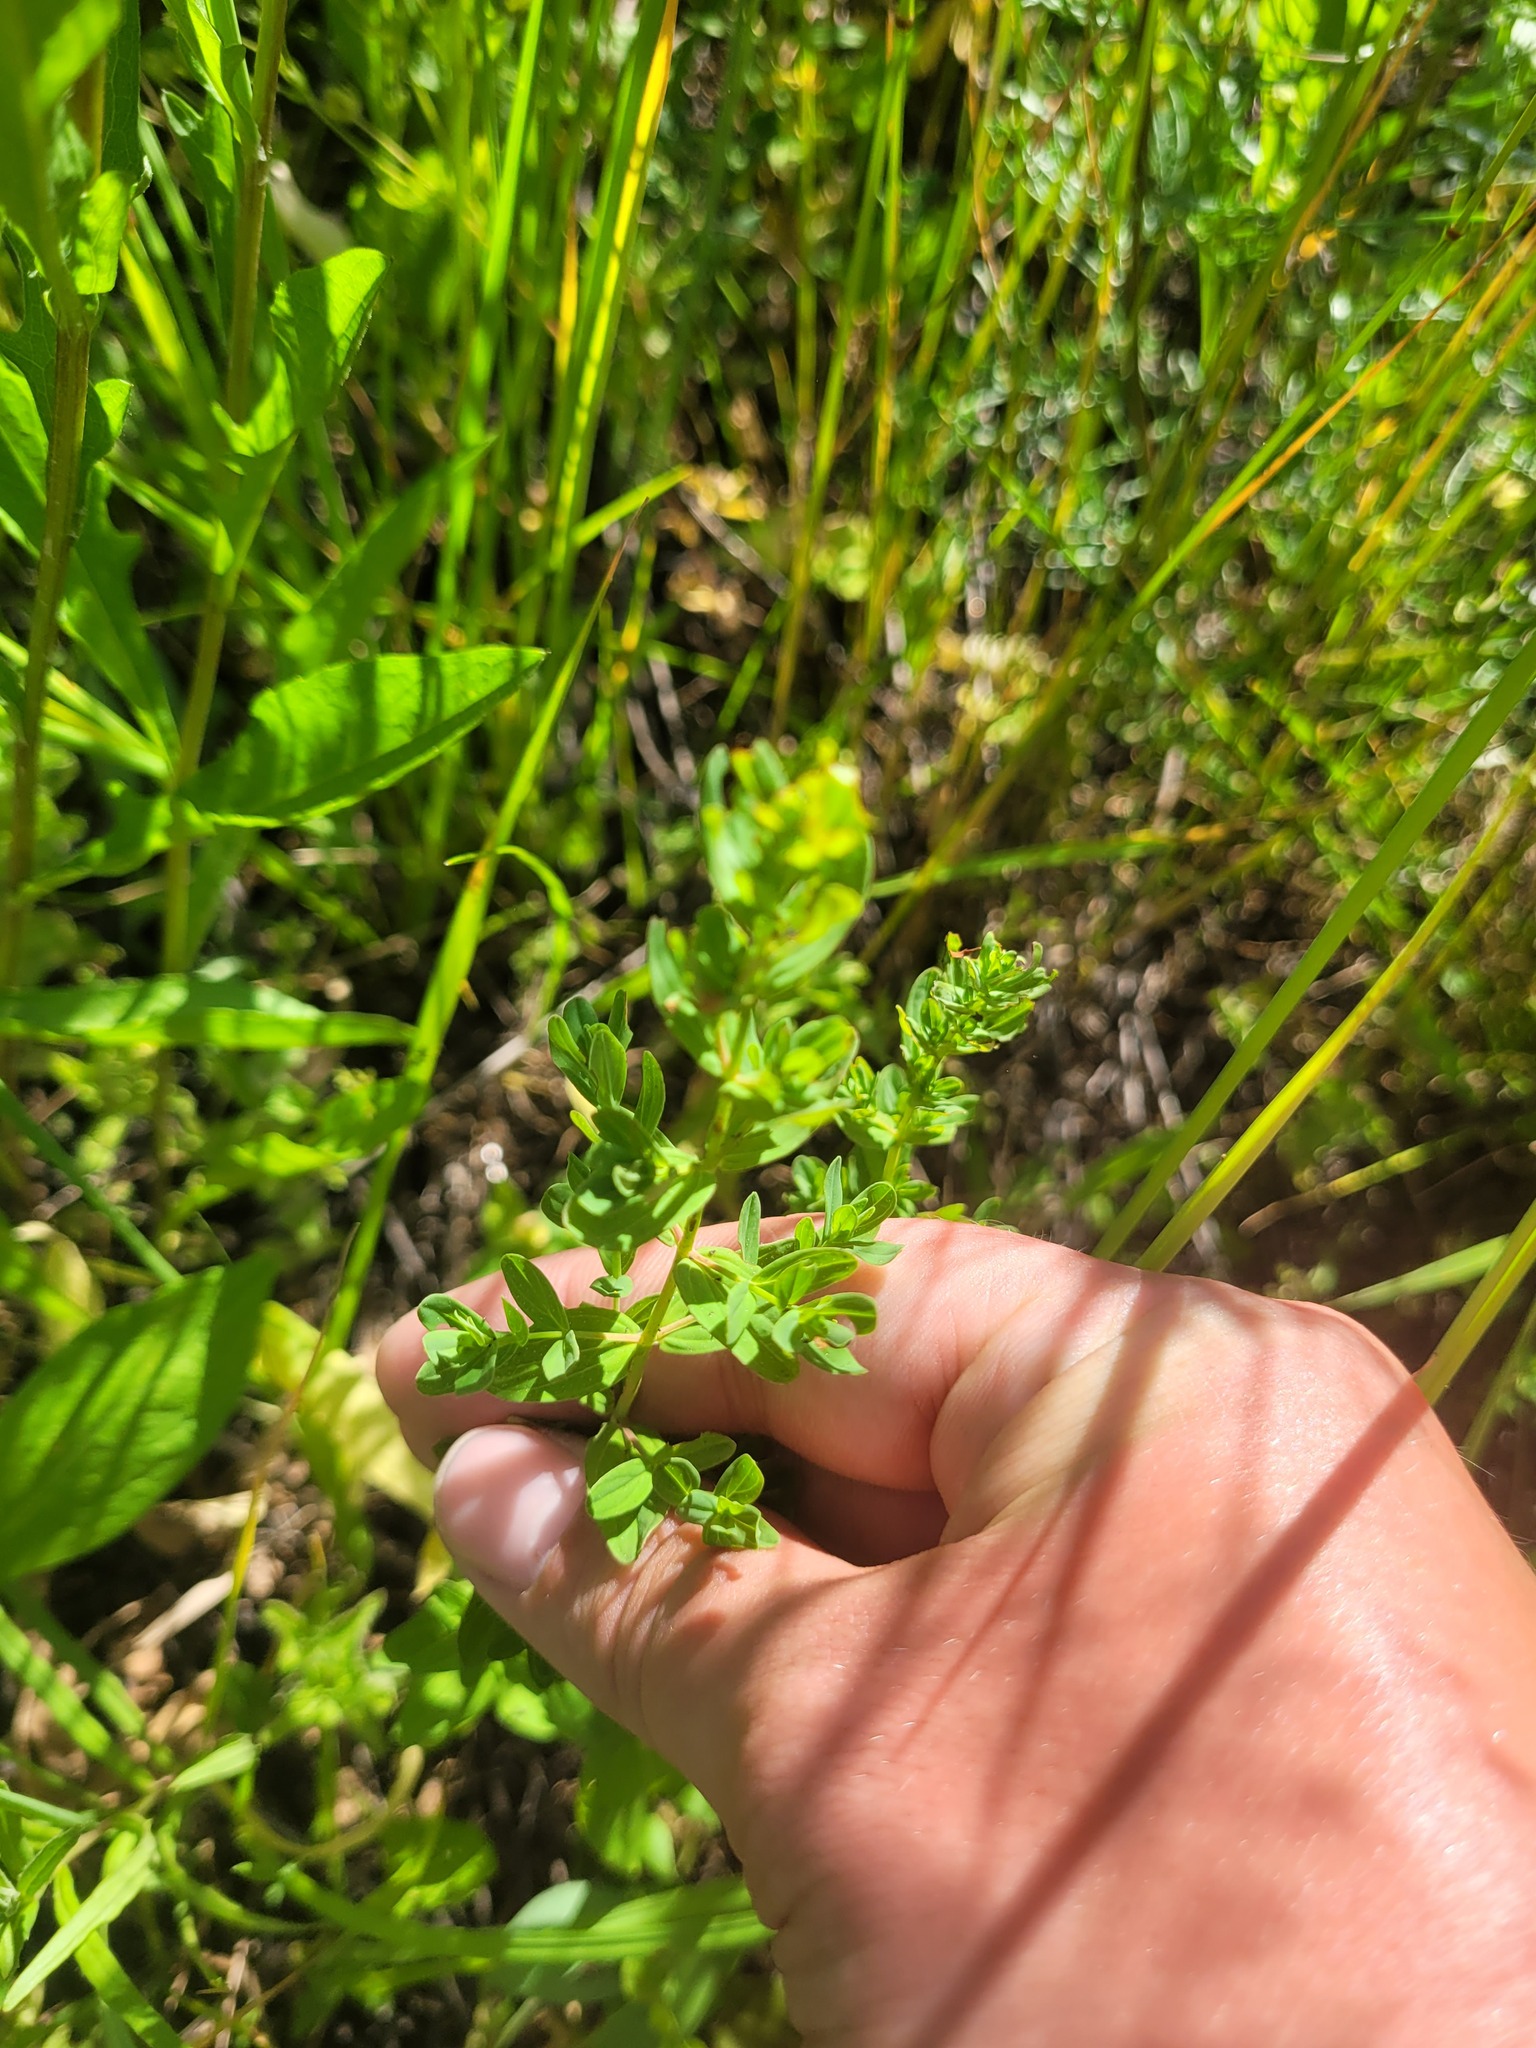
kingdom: Plantae
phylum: Tracheophyta
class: Magnoliopsida
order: Malpighiales
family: Hypericaceae
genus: Hypericum
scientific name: Hypericum perforatum
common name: Common st. johnswort
